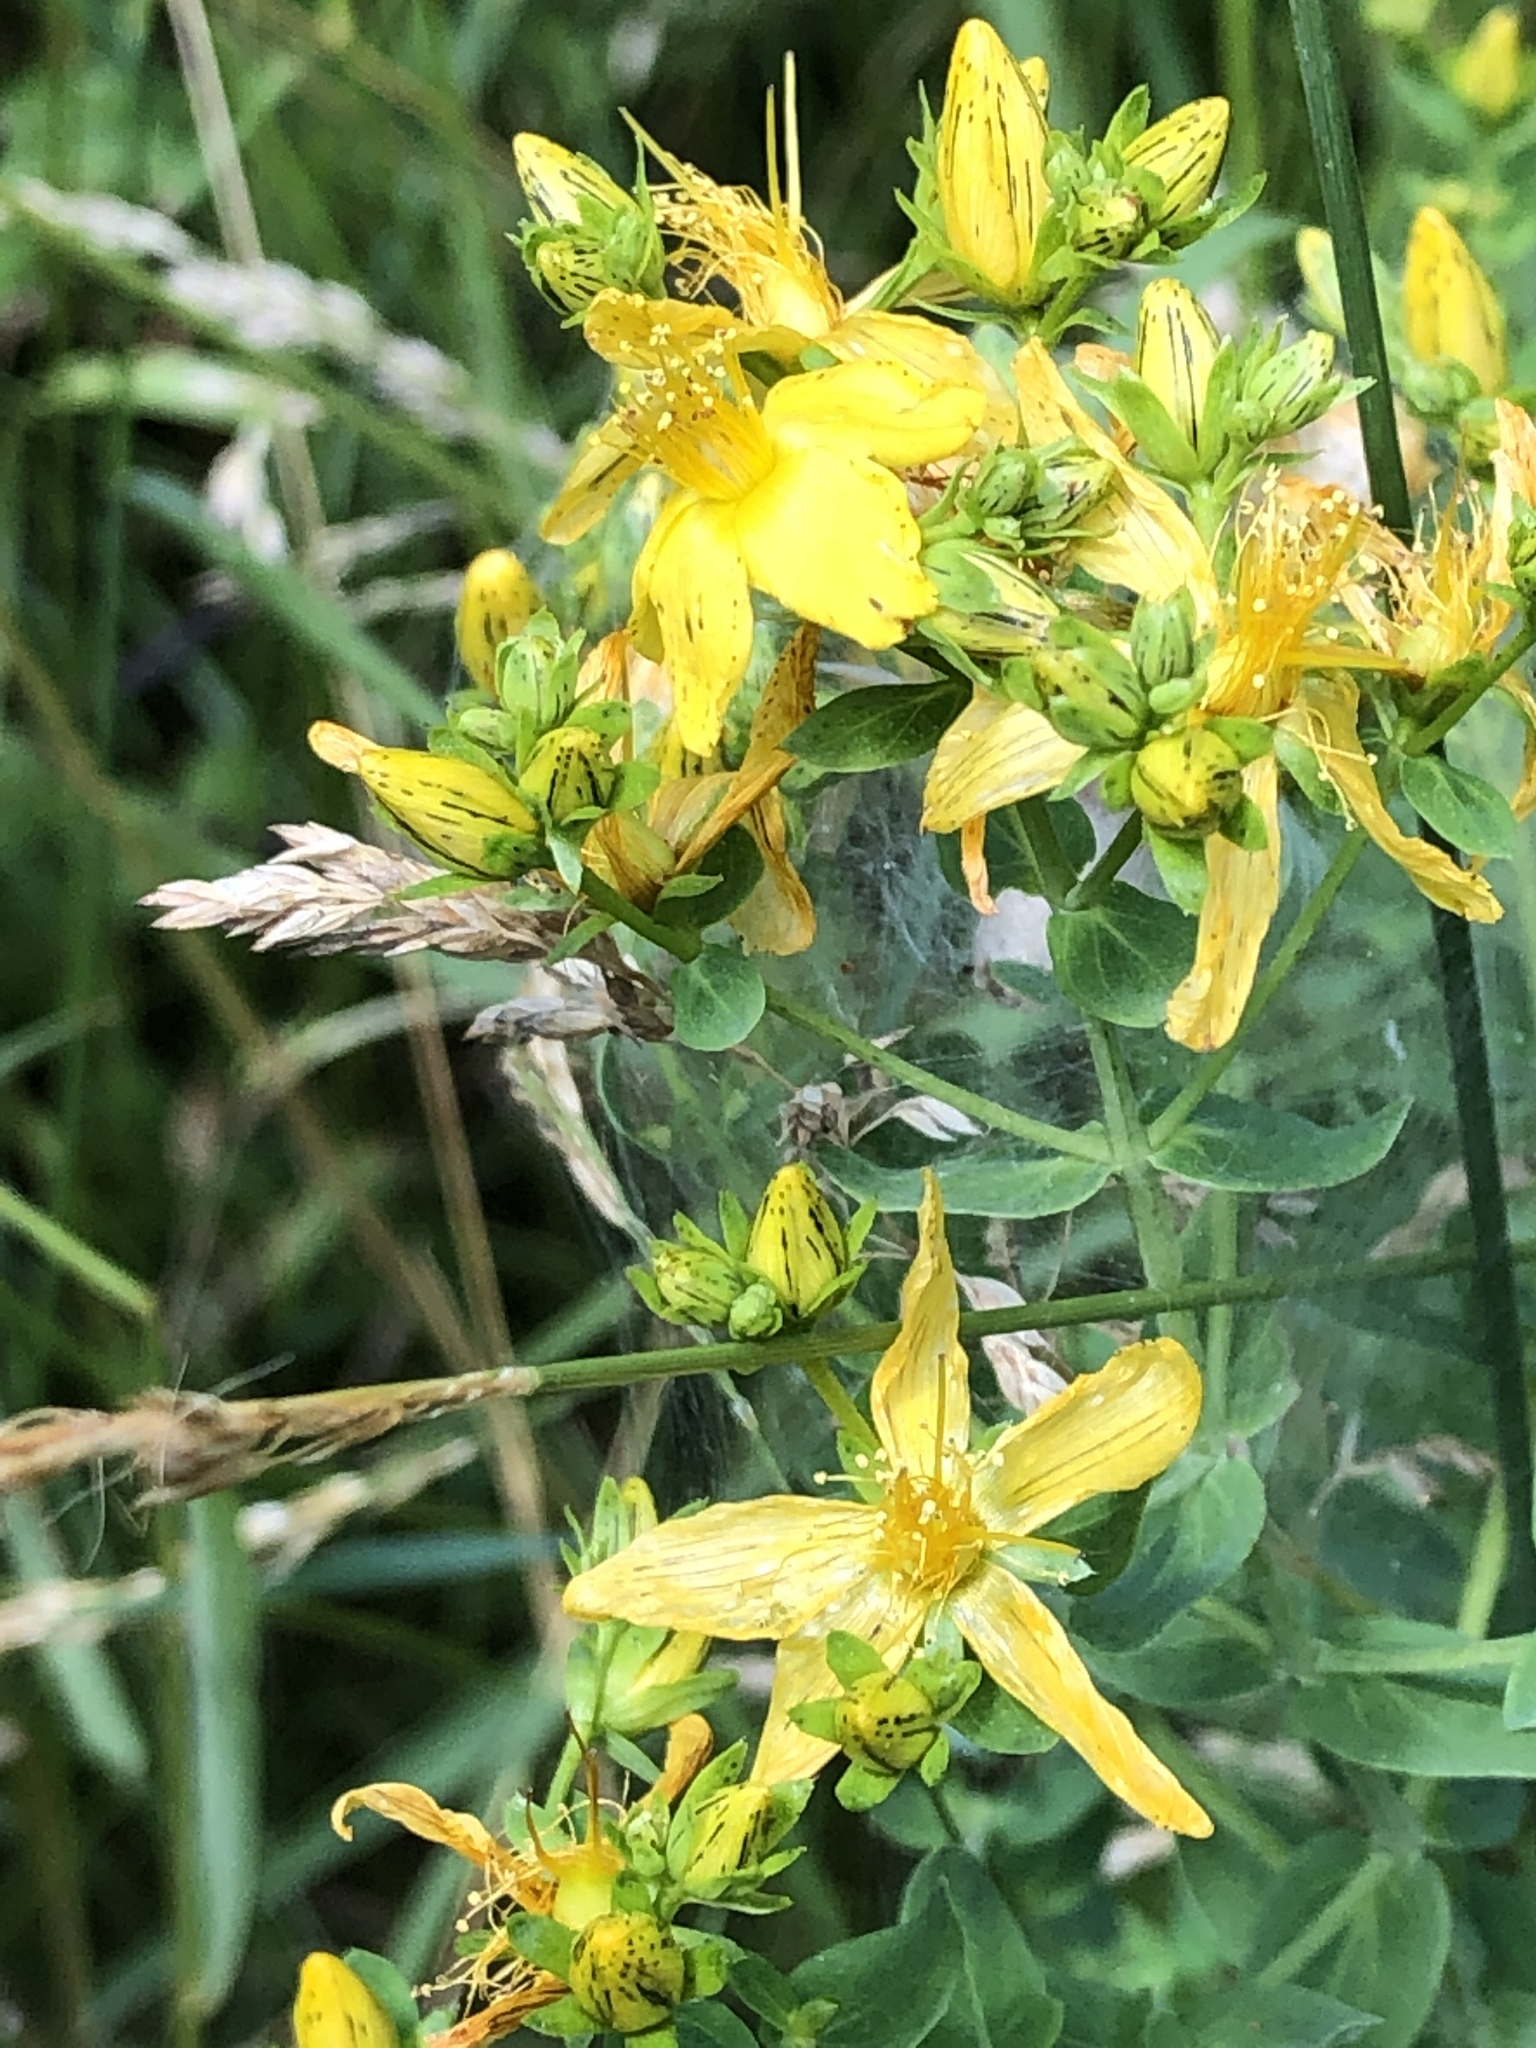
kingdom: Plantae
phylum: Tracheophyta
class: Magnoliopsida
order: Malpighiales
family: Hypericaceae
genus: Hypericum
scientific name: Hypericum perforatum
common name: Common st. johnswort
